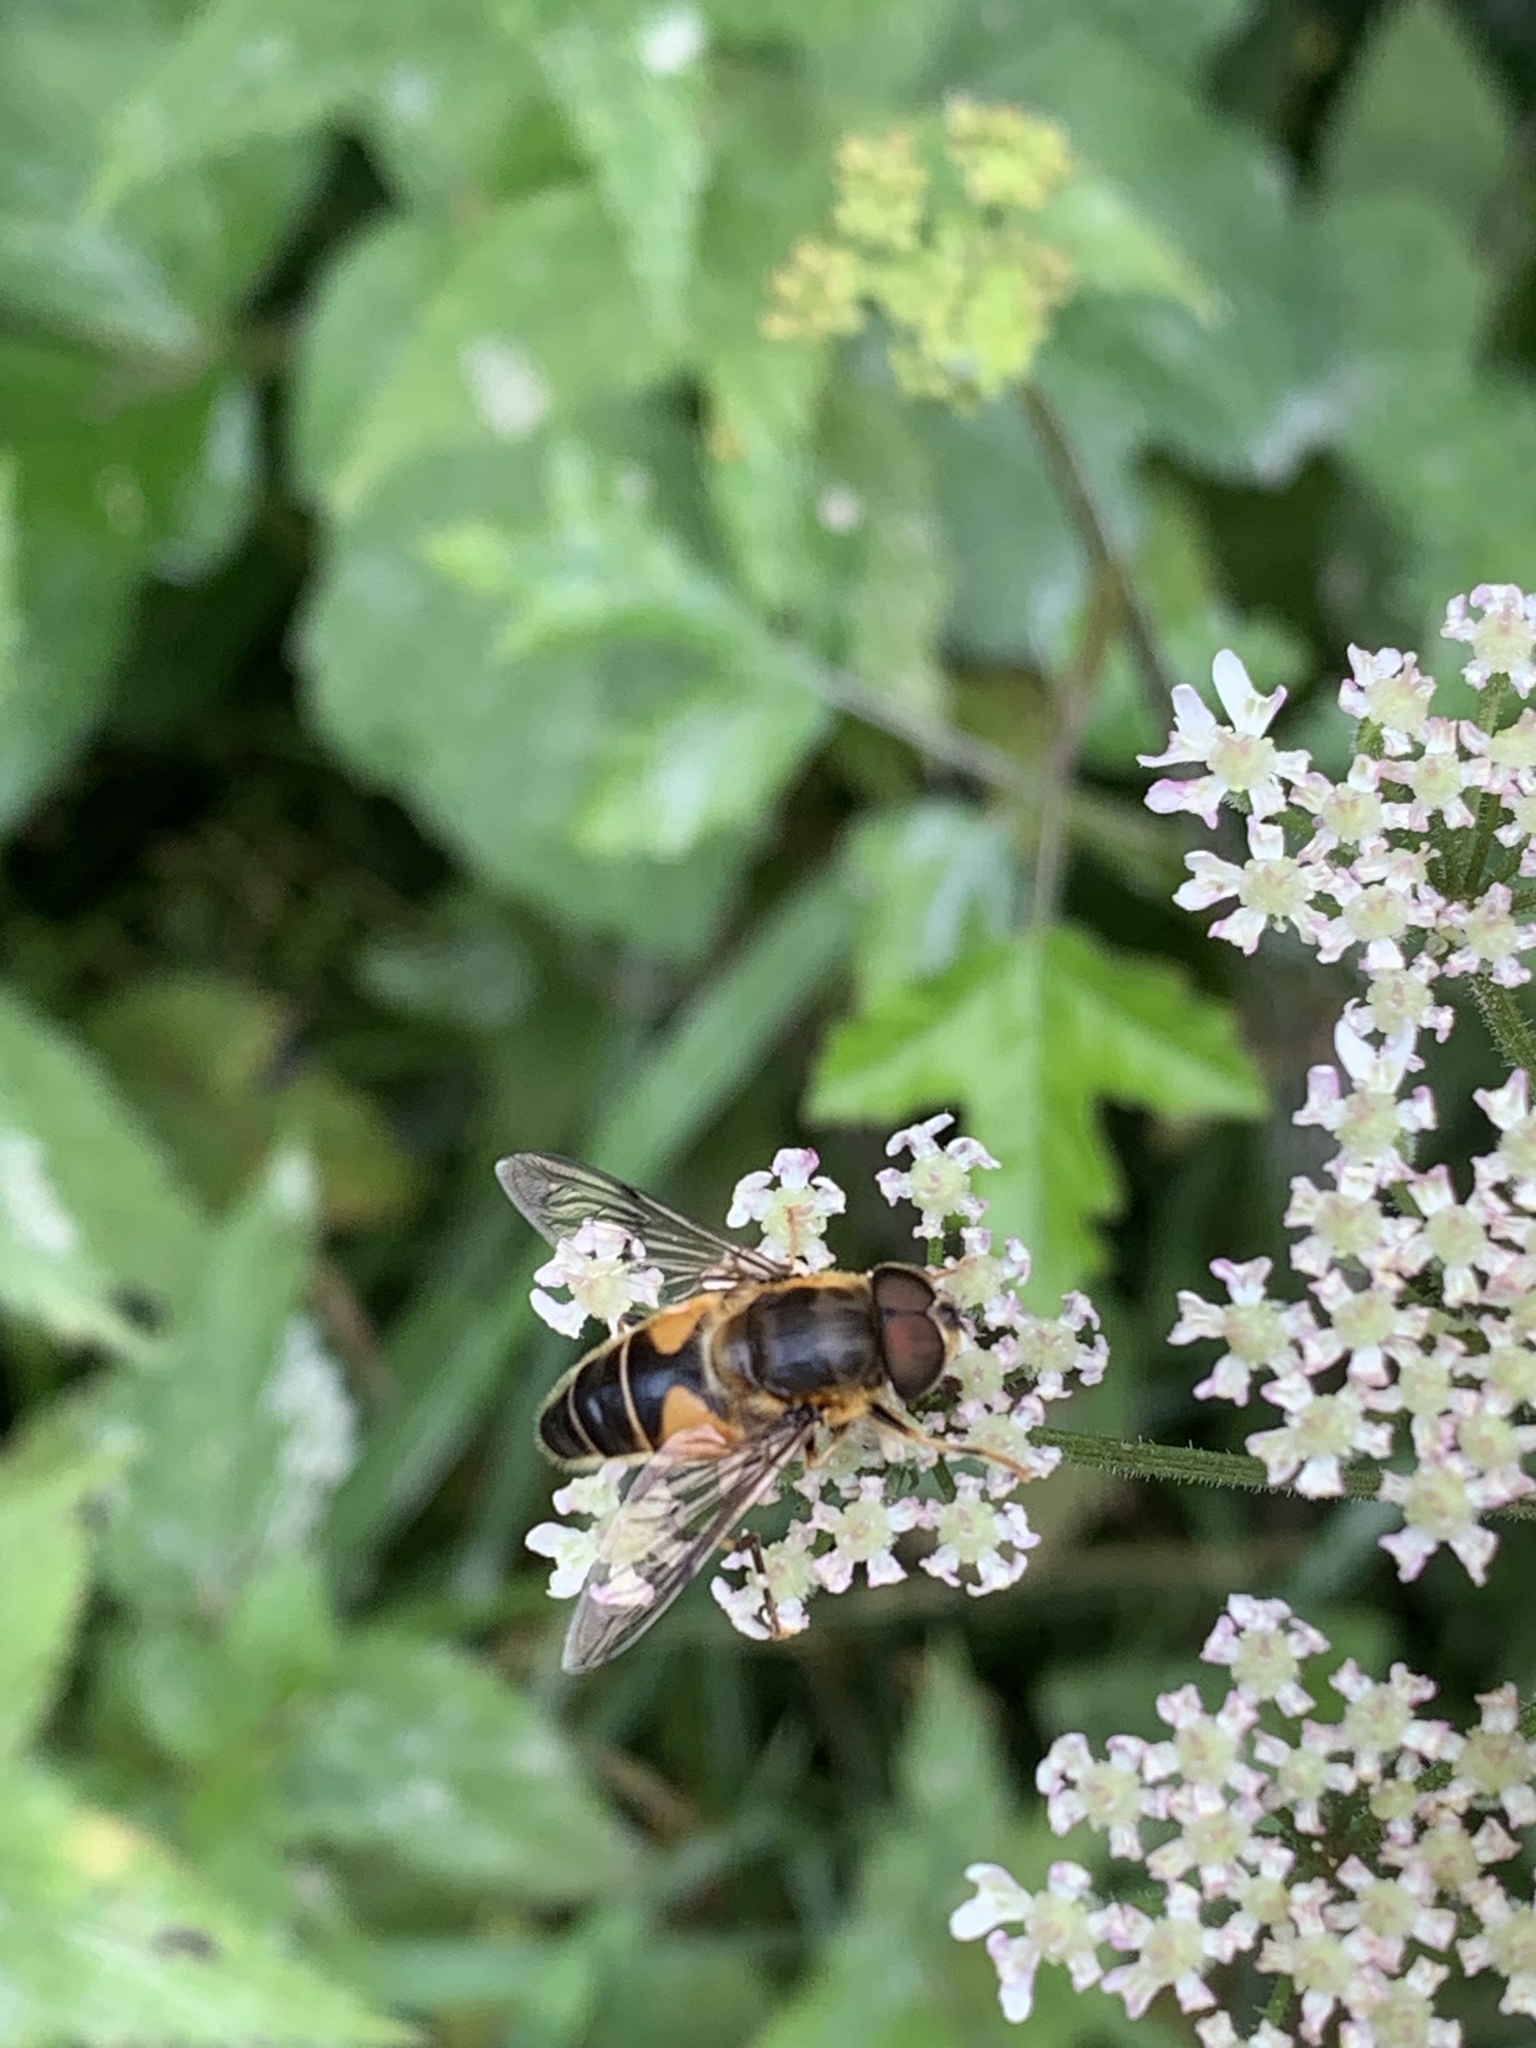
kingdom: Animalia
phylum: Arthropoda
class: Insecta
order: Diptera
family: Syrphidae
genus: Eristalis
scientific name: Eristalis pertinax
